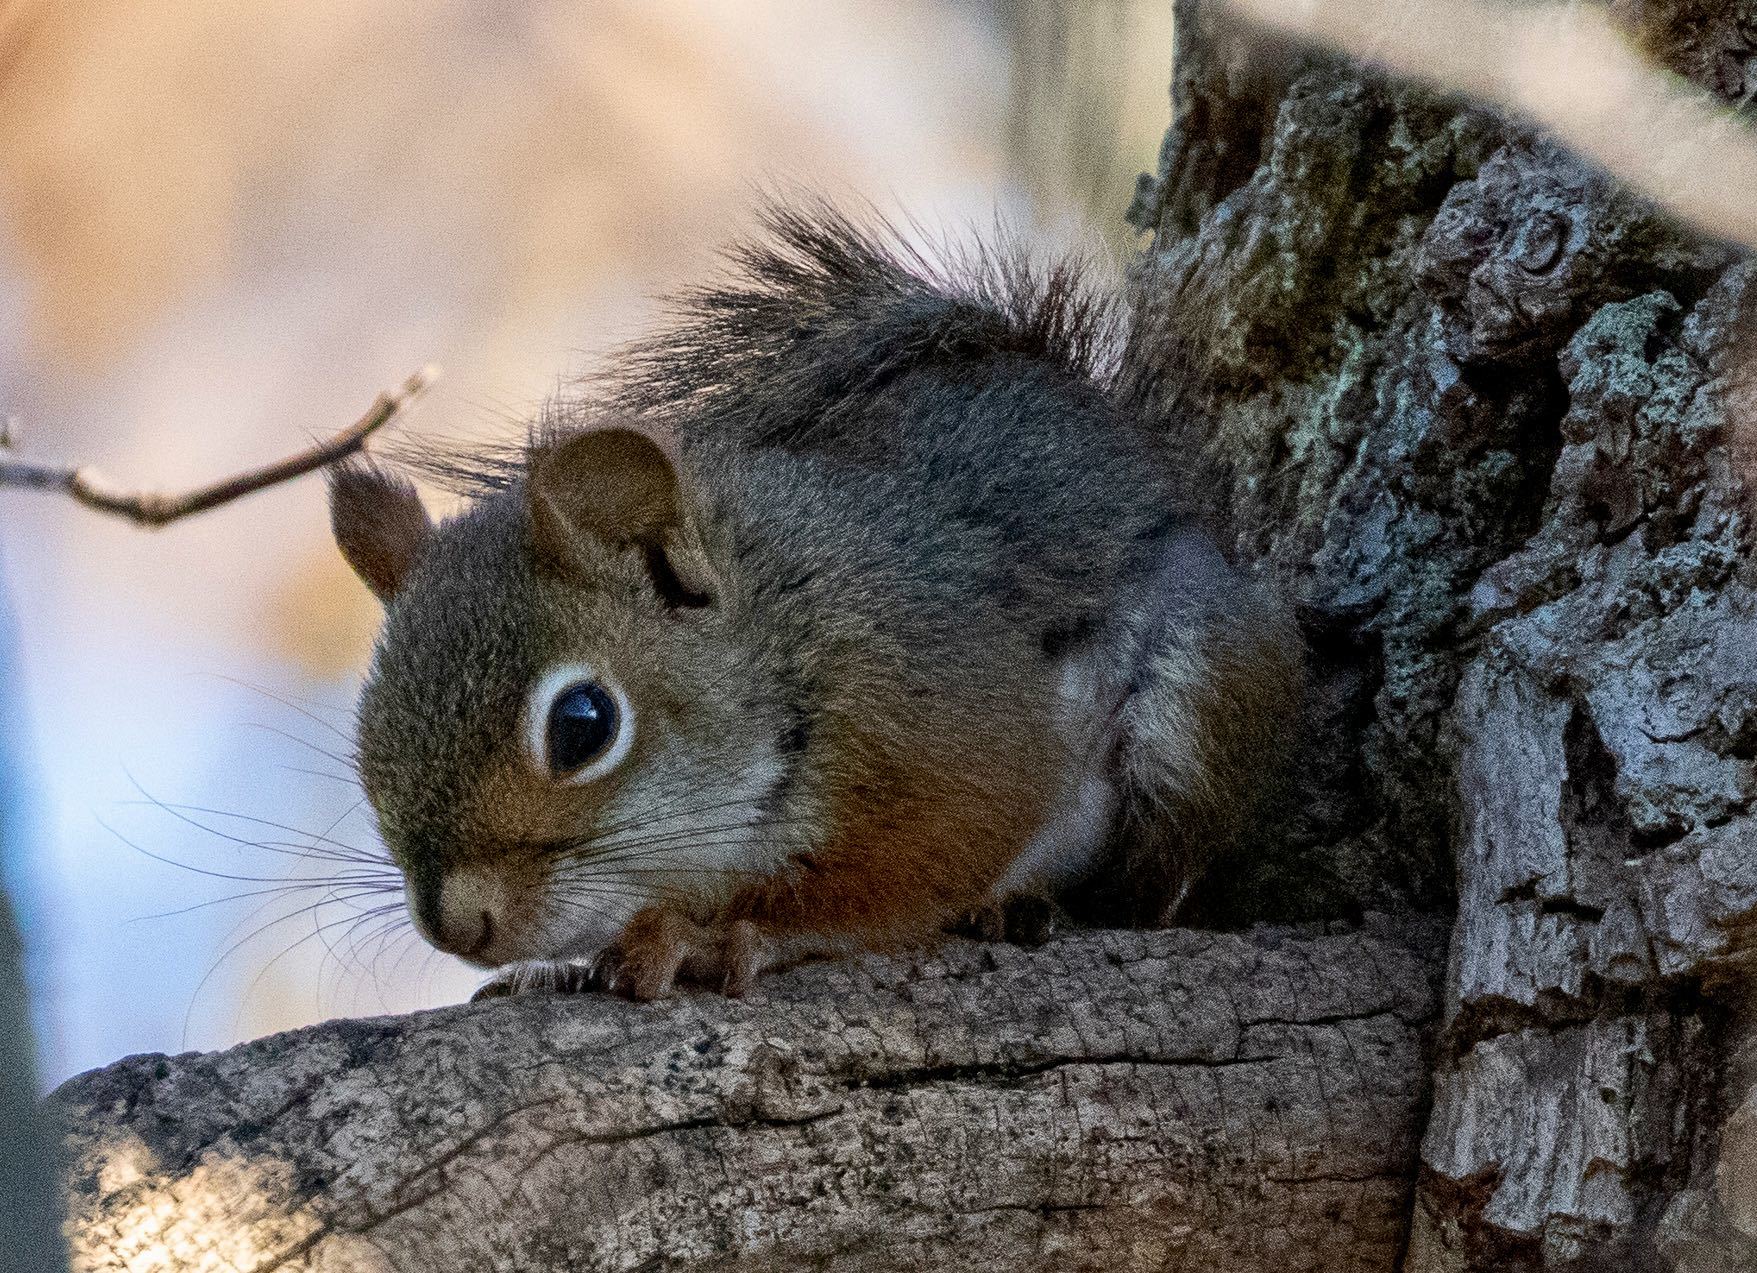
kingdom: Animalia
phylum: Chordata
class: Mammalia
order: Rodentia
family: Sciuridae
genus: Tamiasciurus
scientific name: Tamiasciurus hudsonicus
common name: Red squirrel
